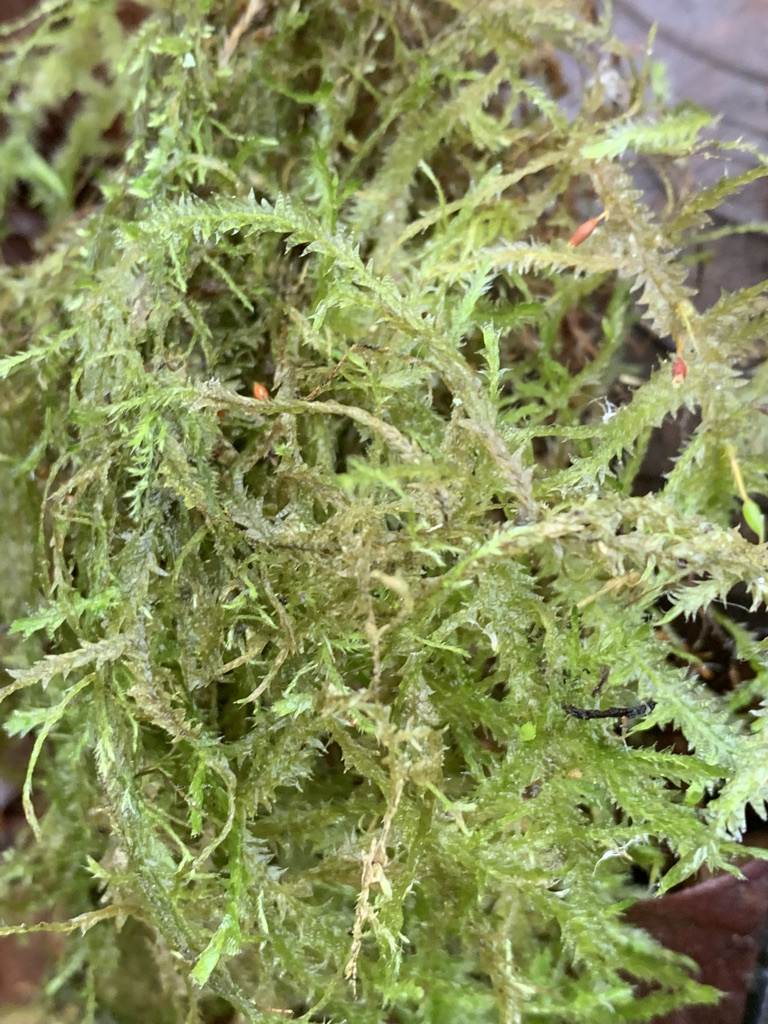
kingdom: Plantae
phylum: Bryophyta
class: Bryopsida
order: Hypnales
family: Neckeraceae
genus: Neckera
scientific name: Neckera douglasii
